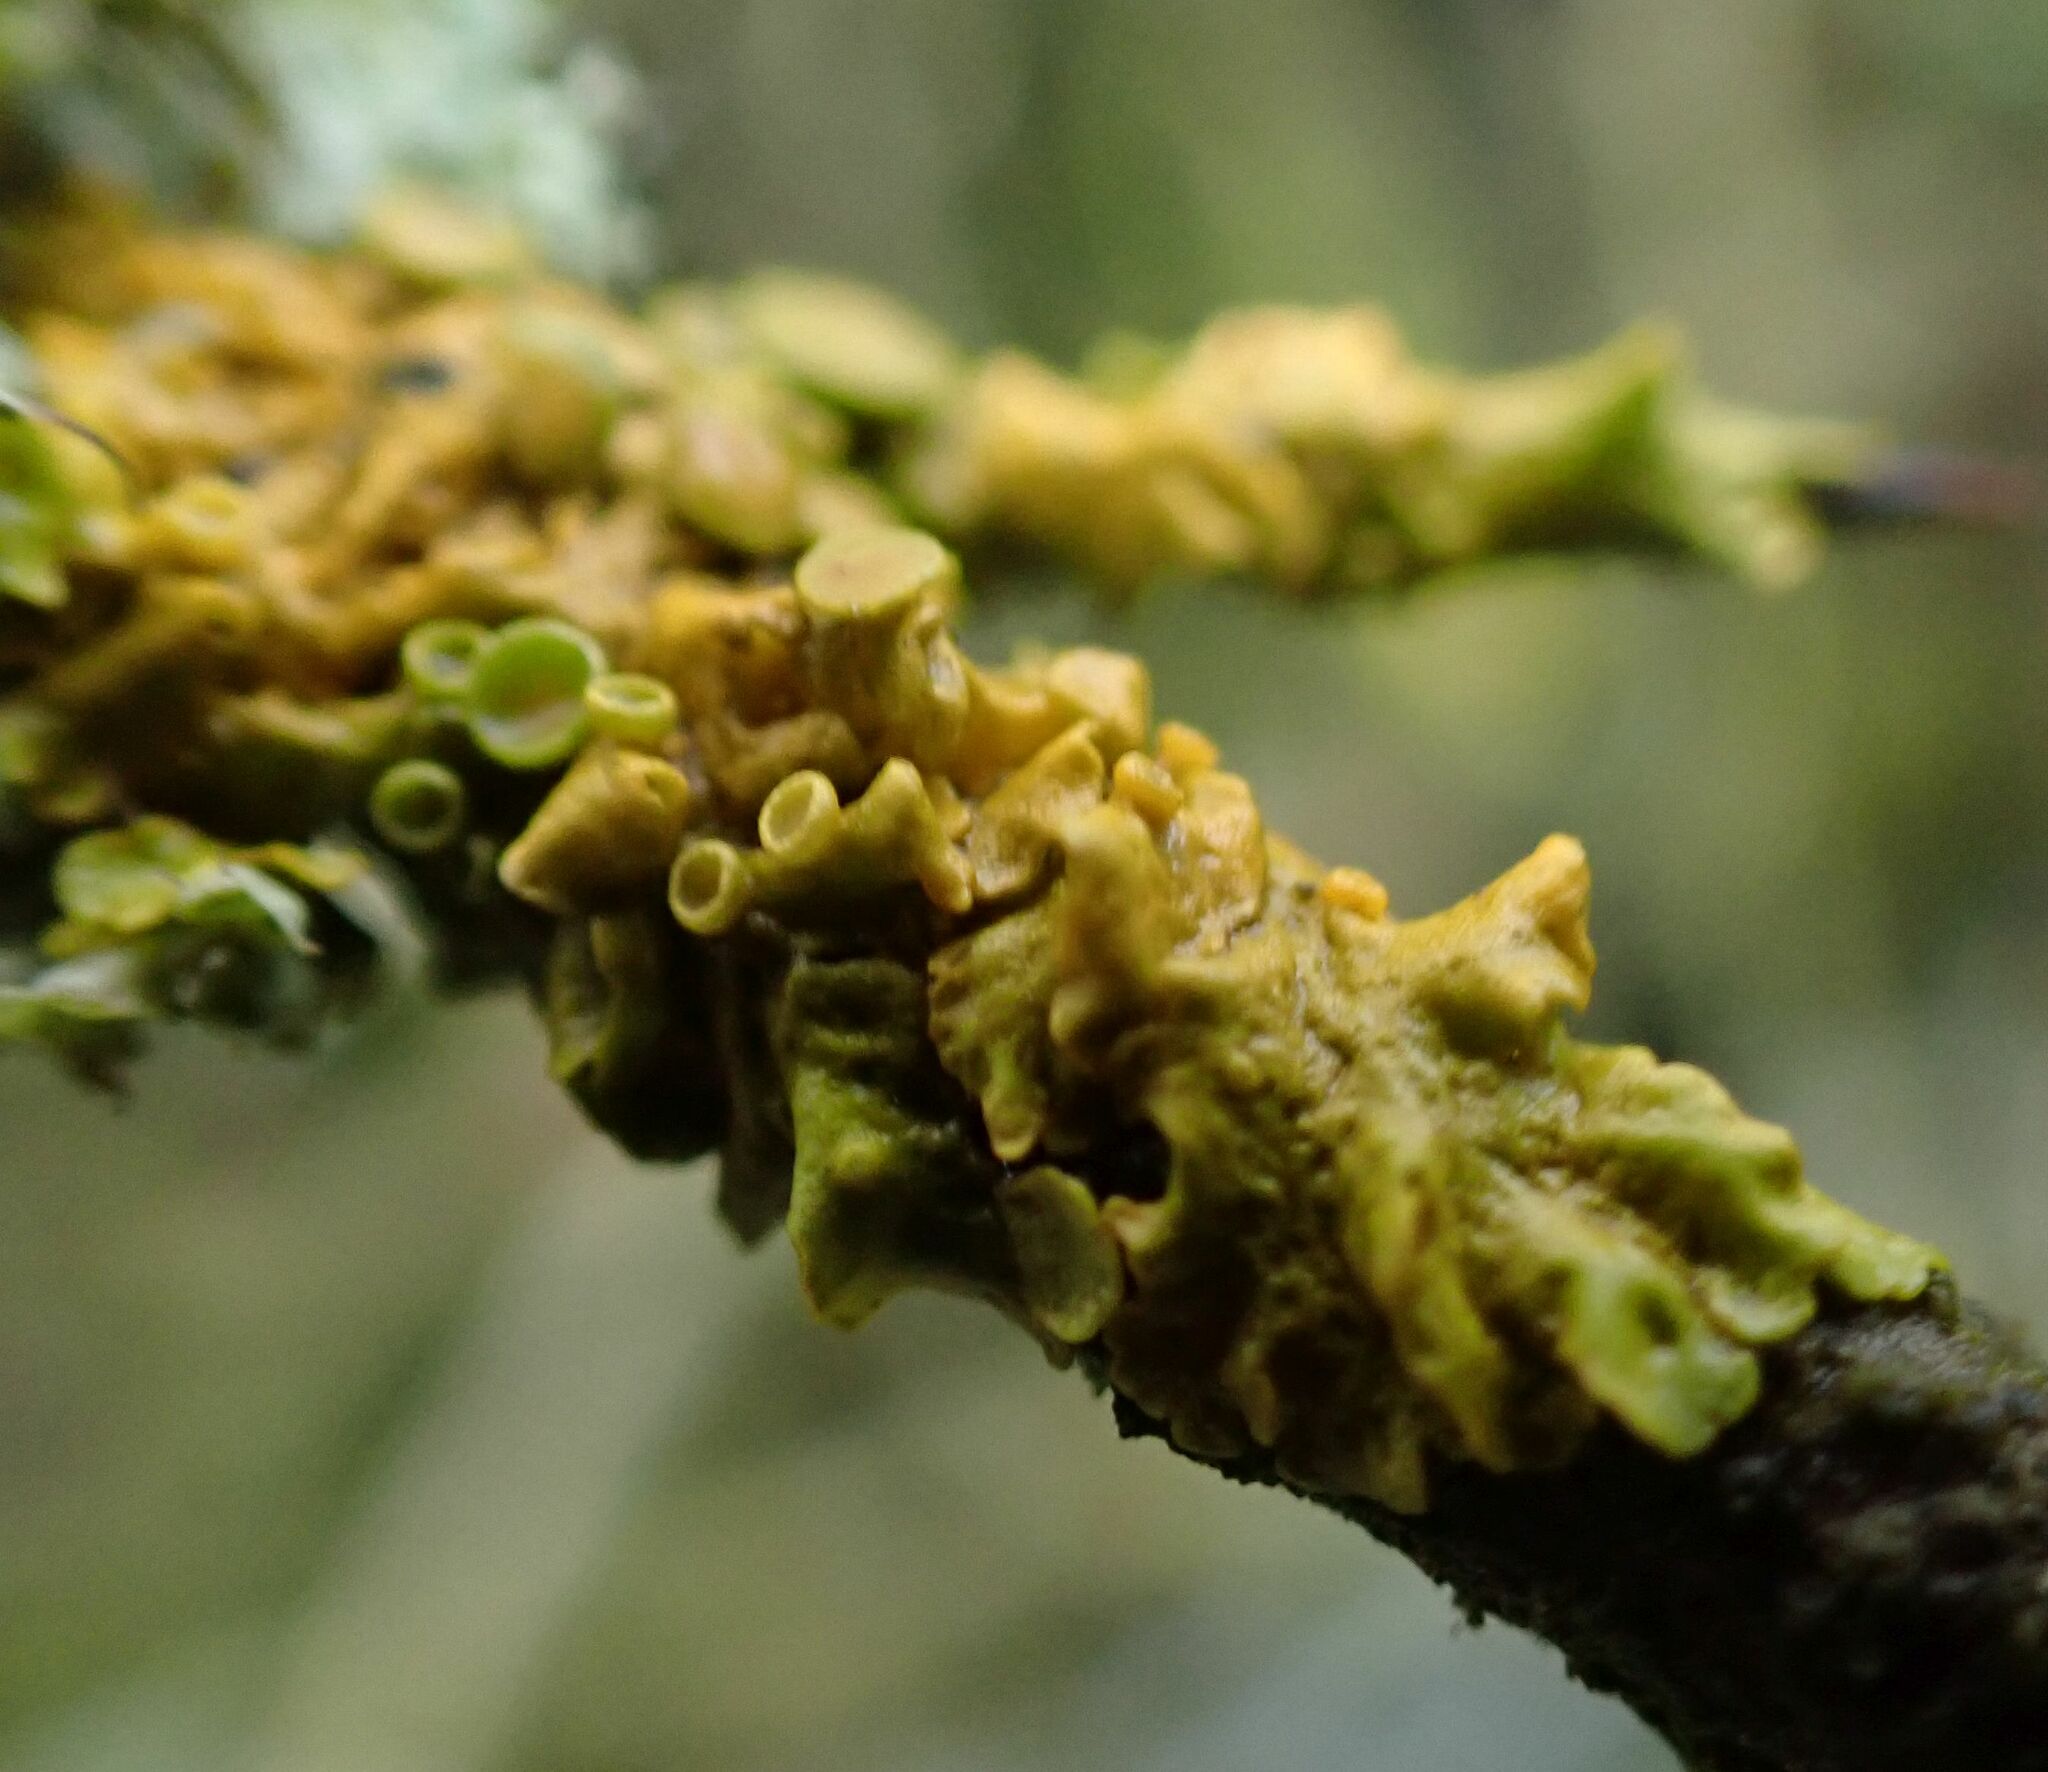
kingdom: Fungi
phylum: Ascomycota
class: Lecanoromycetes
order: Teloschistales
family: Teloschistaceae
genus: Xanthoria
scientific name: Xanthoria parietina
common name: Common orange lichen
